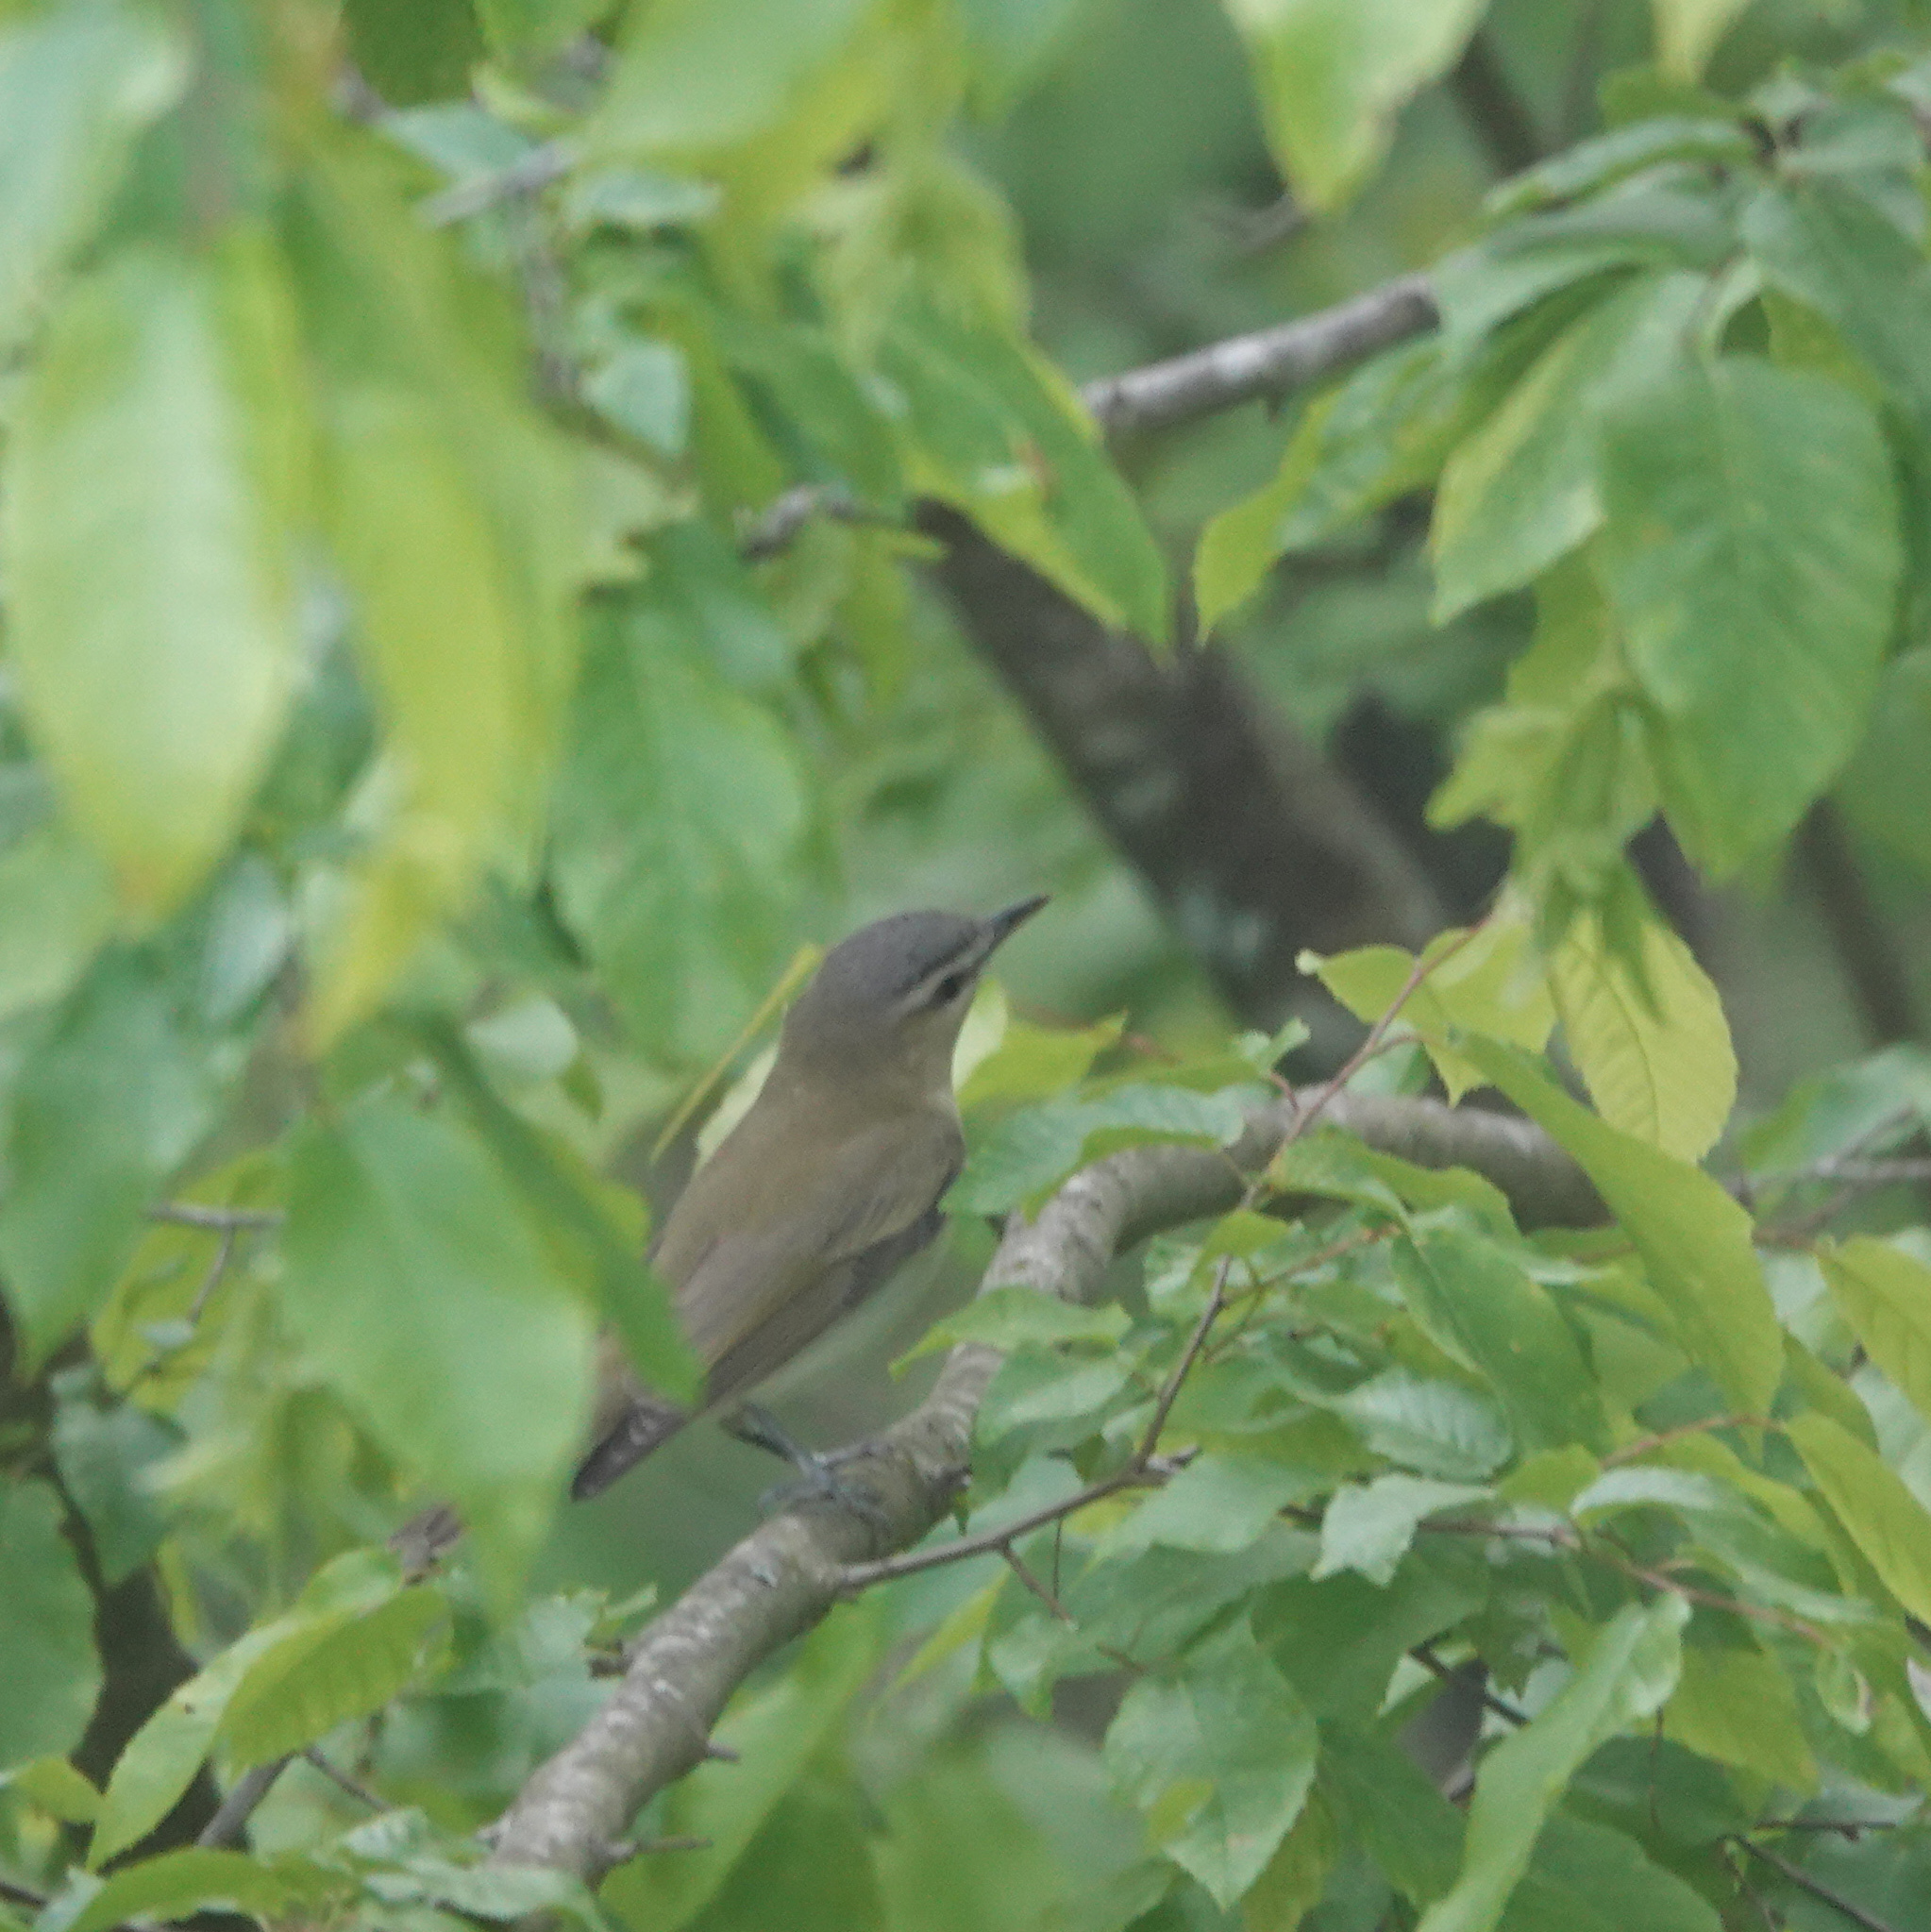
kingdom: Animalia
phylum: Chordata
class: Aves
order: Passeriformes
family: Vireonidae
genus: Vireo
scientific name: Vireo olivaceus
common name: Red-eyed vireo
